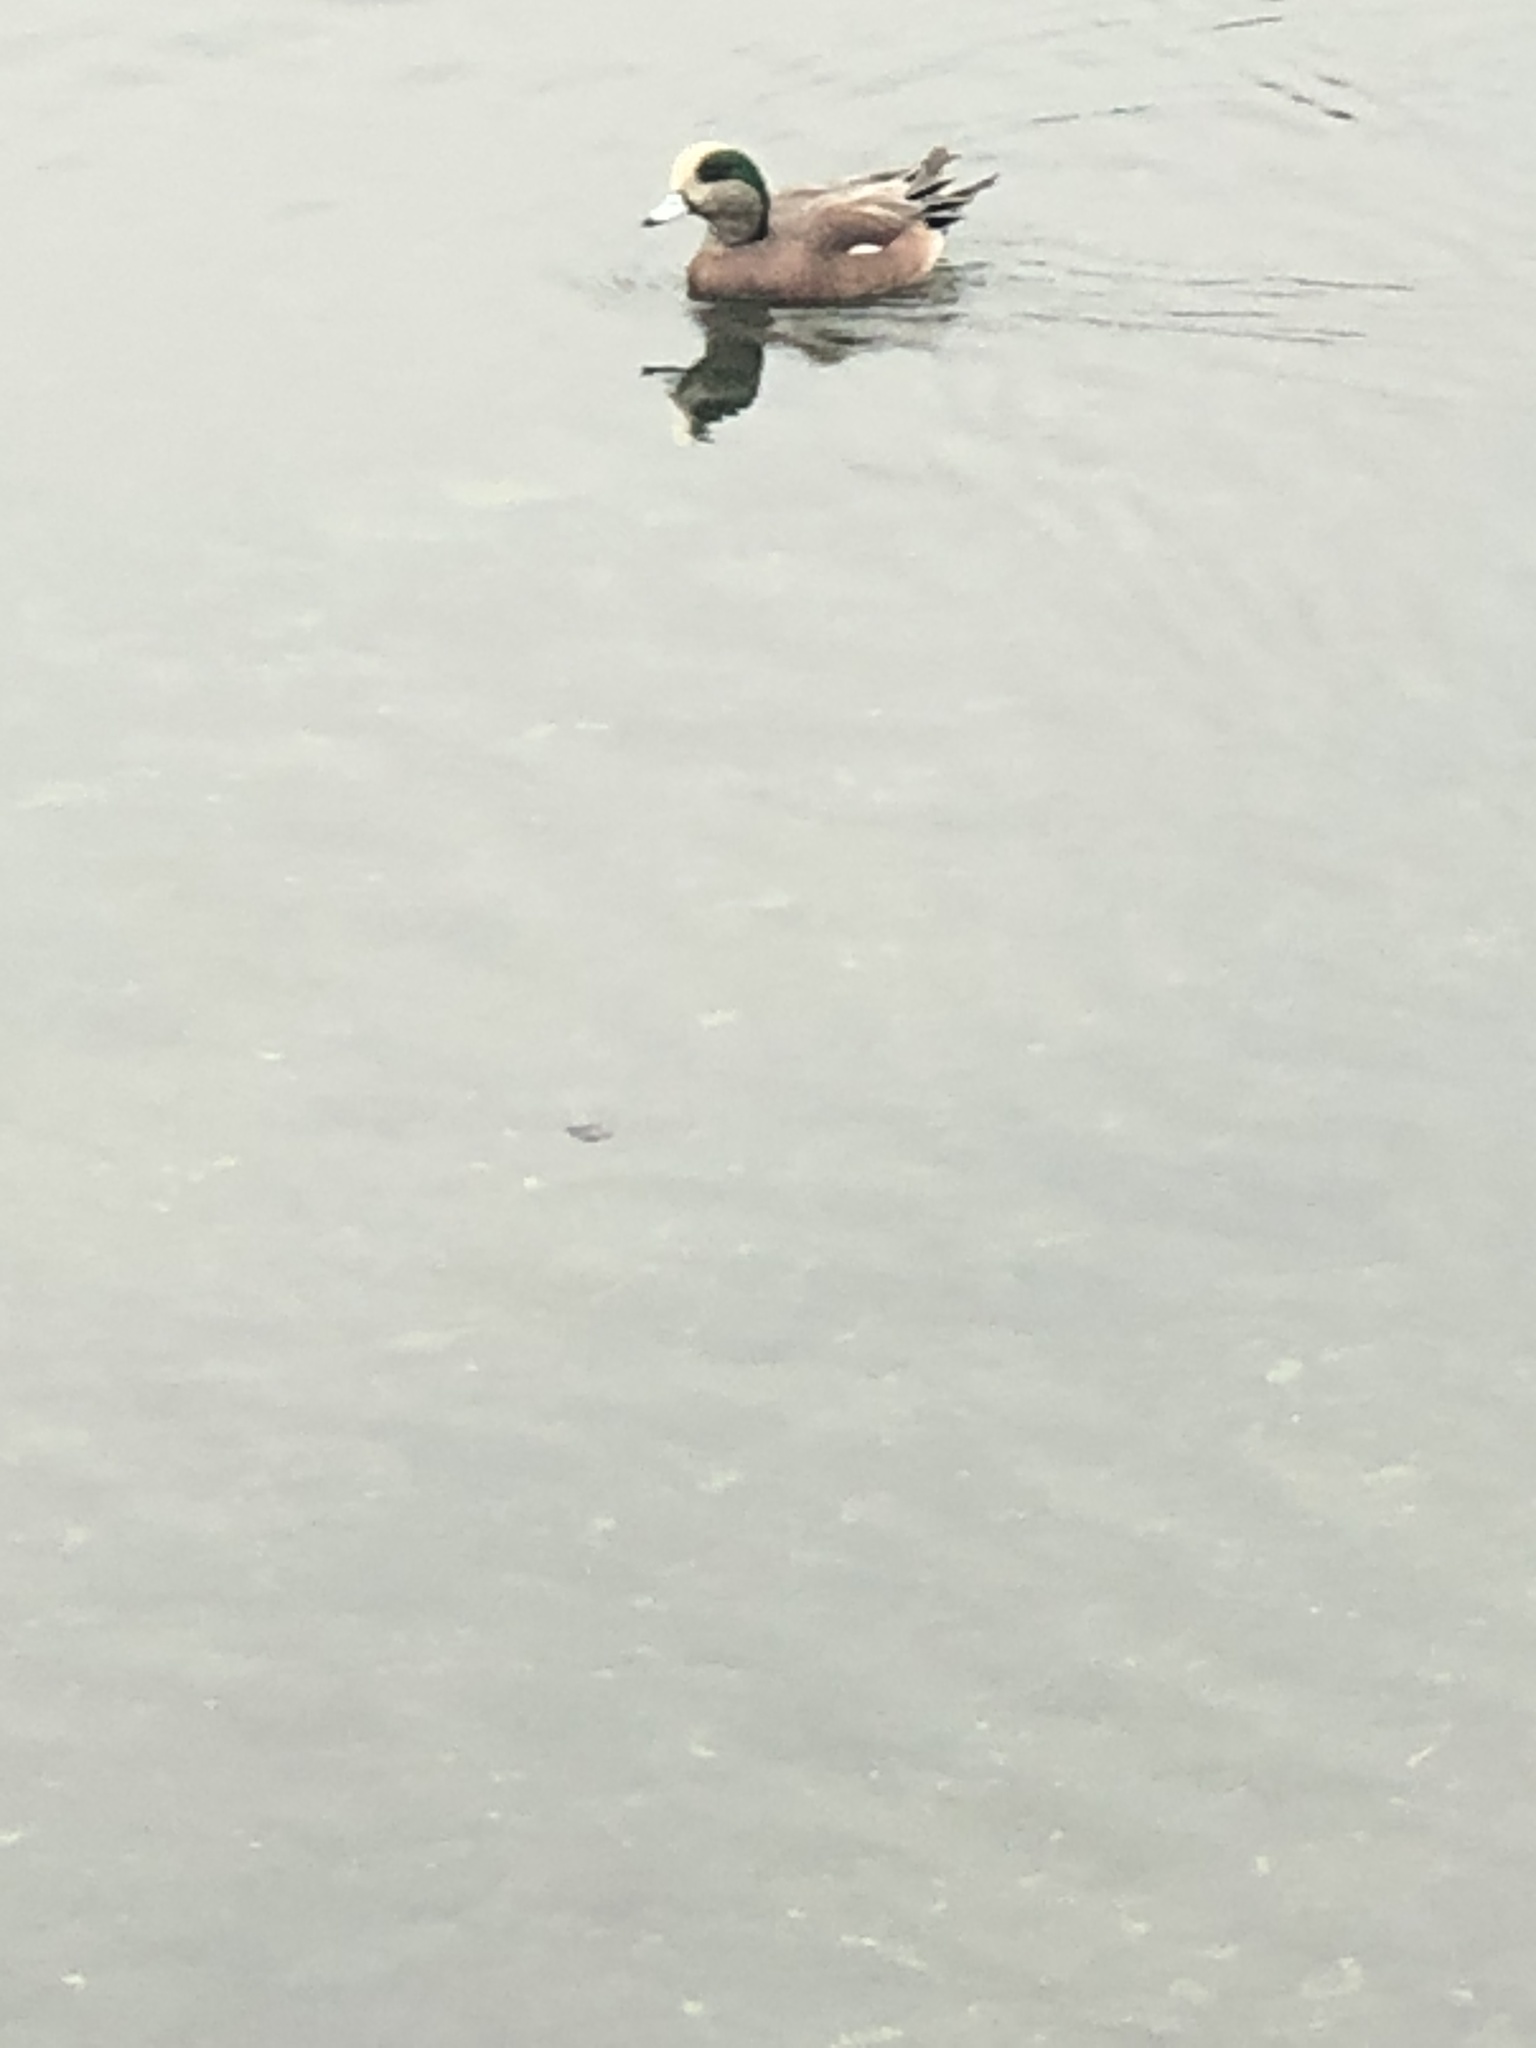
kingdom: Animalia
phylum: Chordata
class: Aves
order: Anseriformes
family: Anatidae
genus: Mareca
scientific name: Mareca americana
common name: American wigeon
